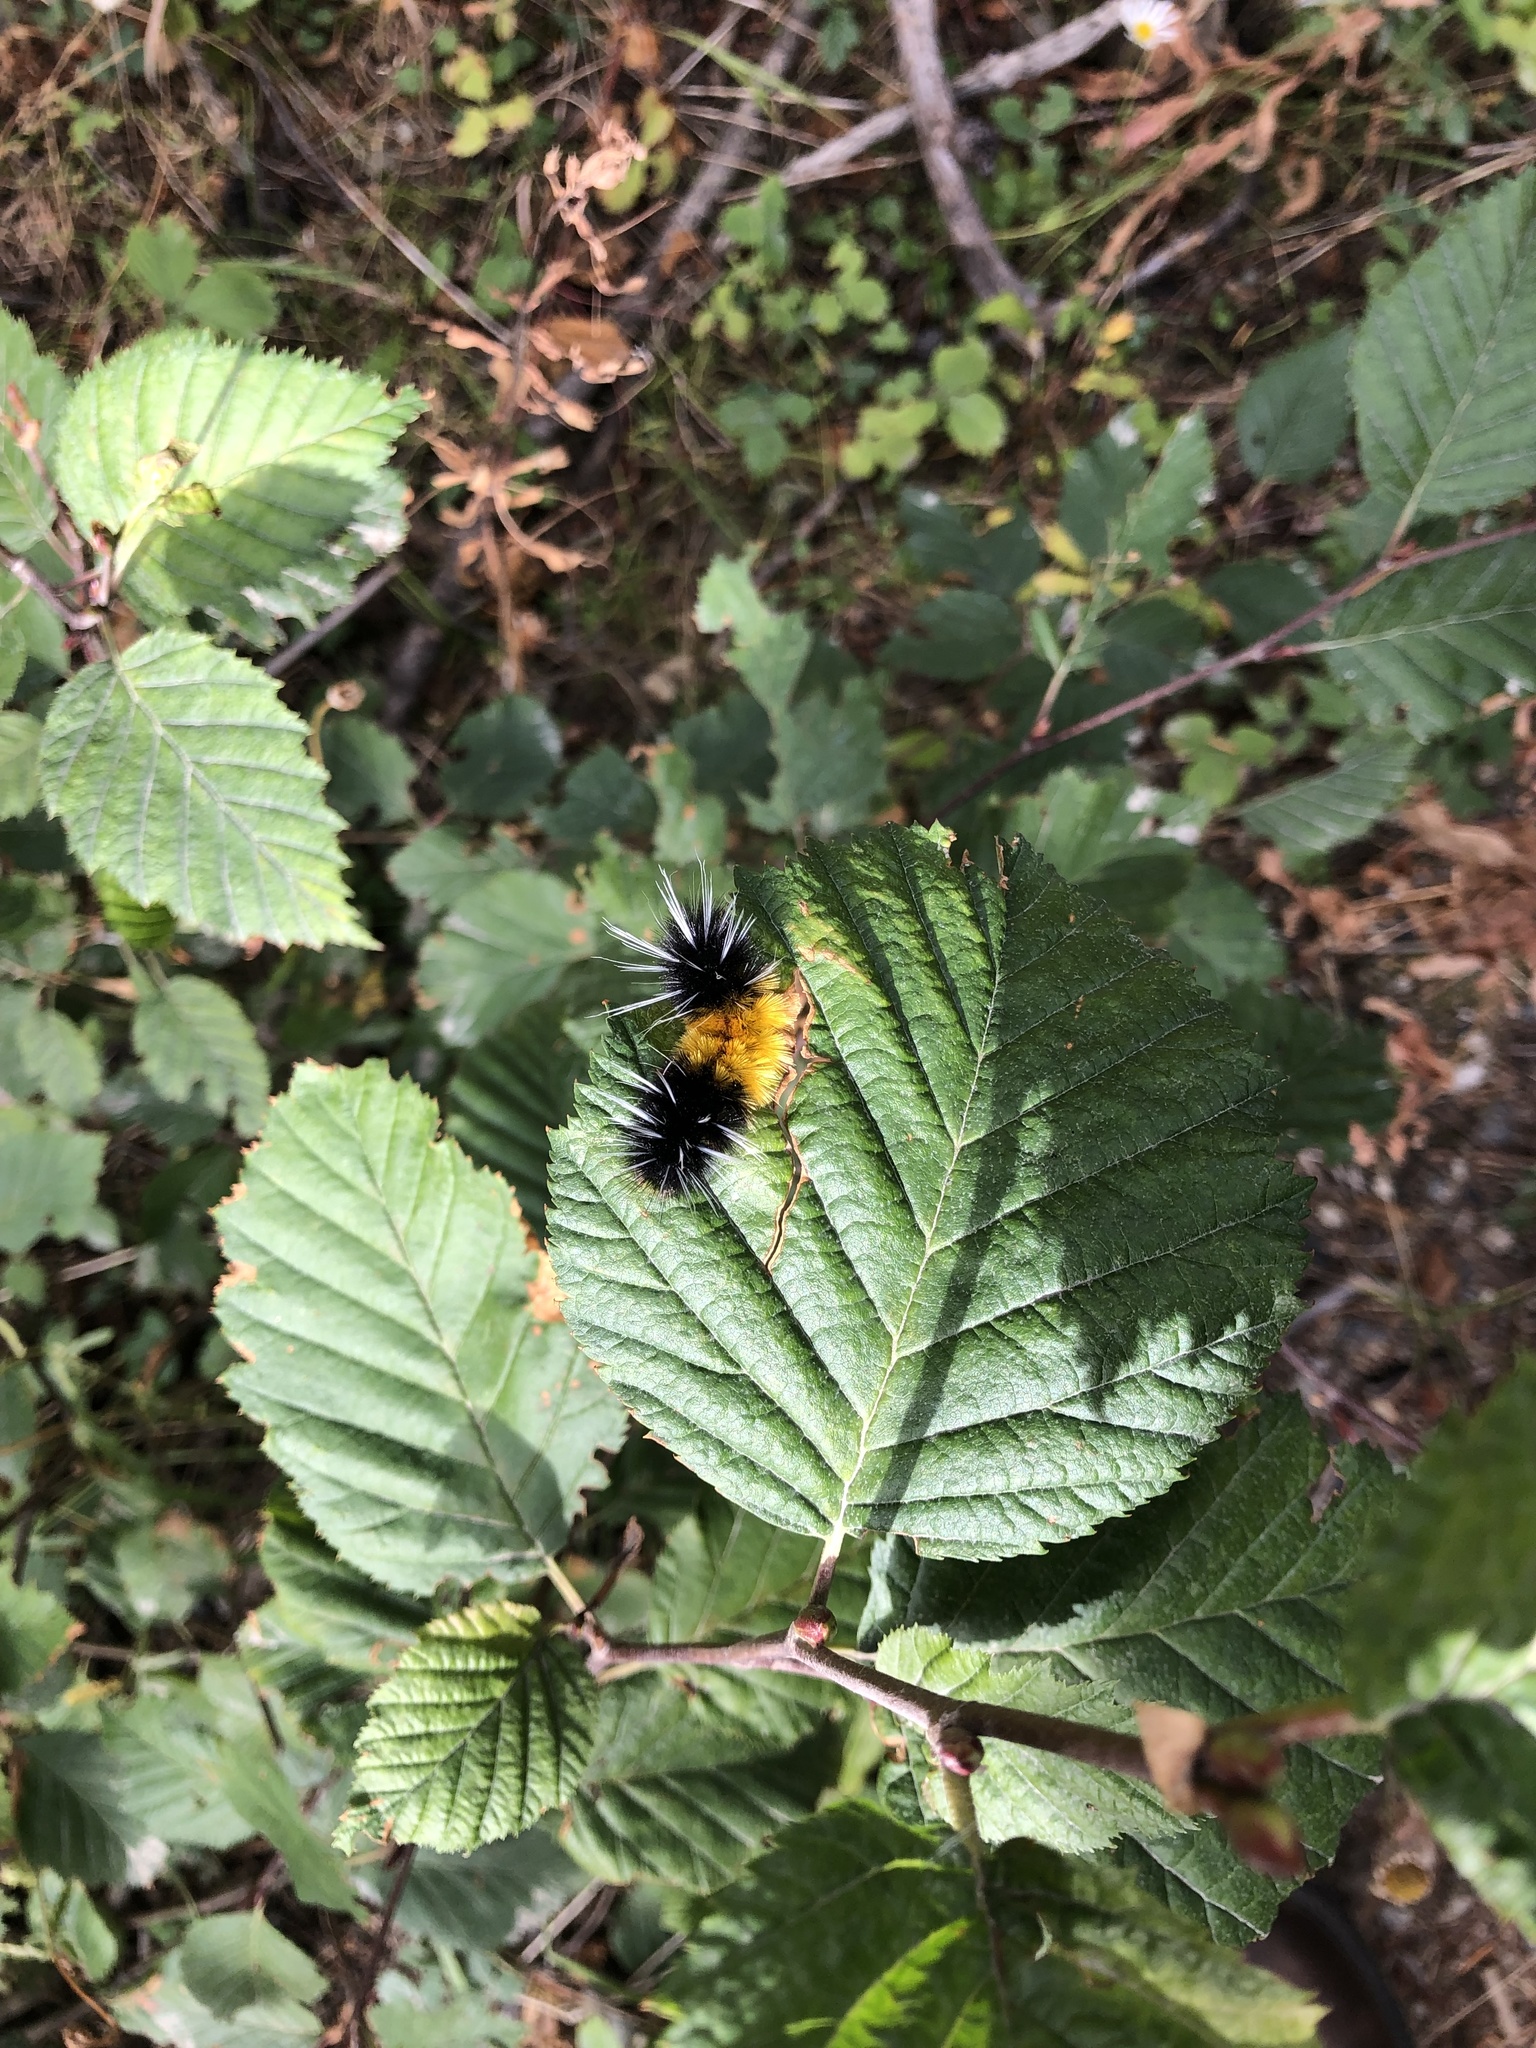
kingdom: Animalia
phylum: Arthropoda
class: Insecta
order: Lepidoptera
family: Erebidae
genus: Lophocampa
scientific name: Lophocampa maculata
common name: Spotted tussock moth
